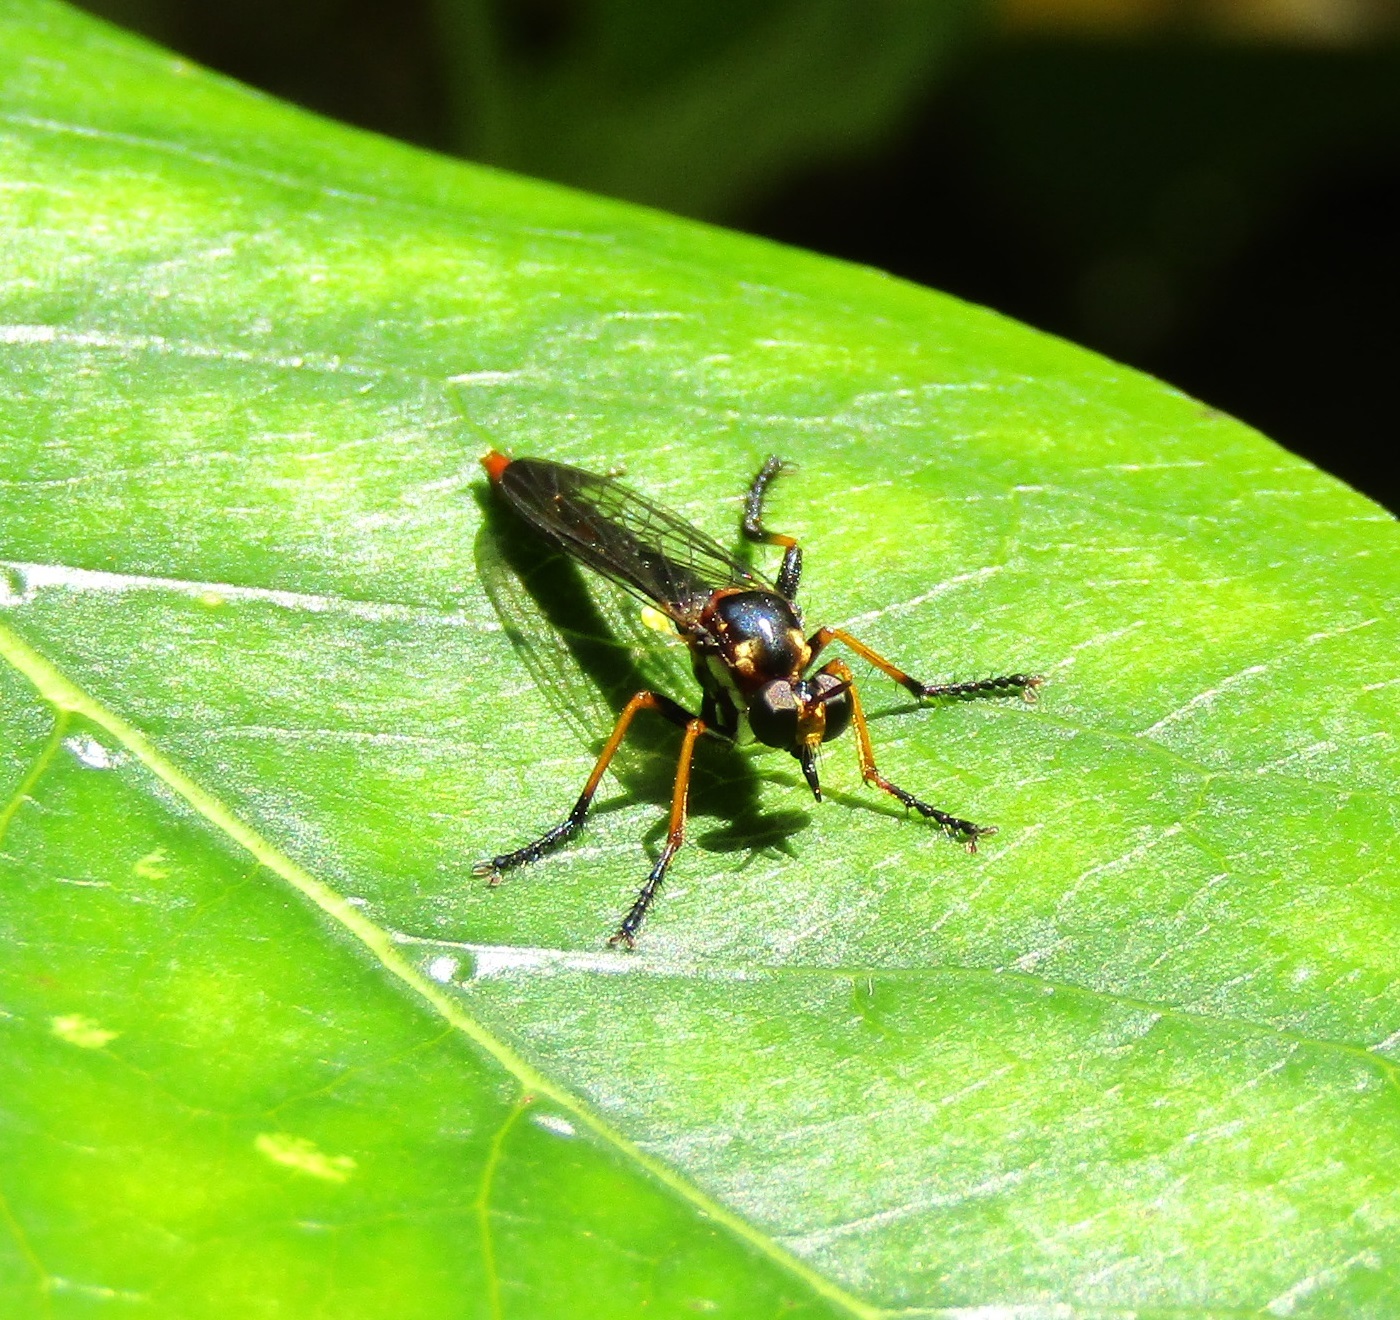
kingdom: Animalia
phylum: Arthropoda
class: Insecta
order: Diptera
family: Asilidae
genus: Saropogon
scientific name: Saropogon fascipes
